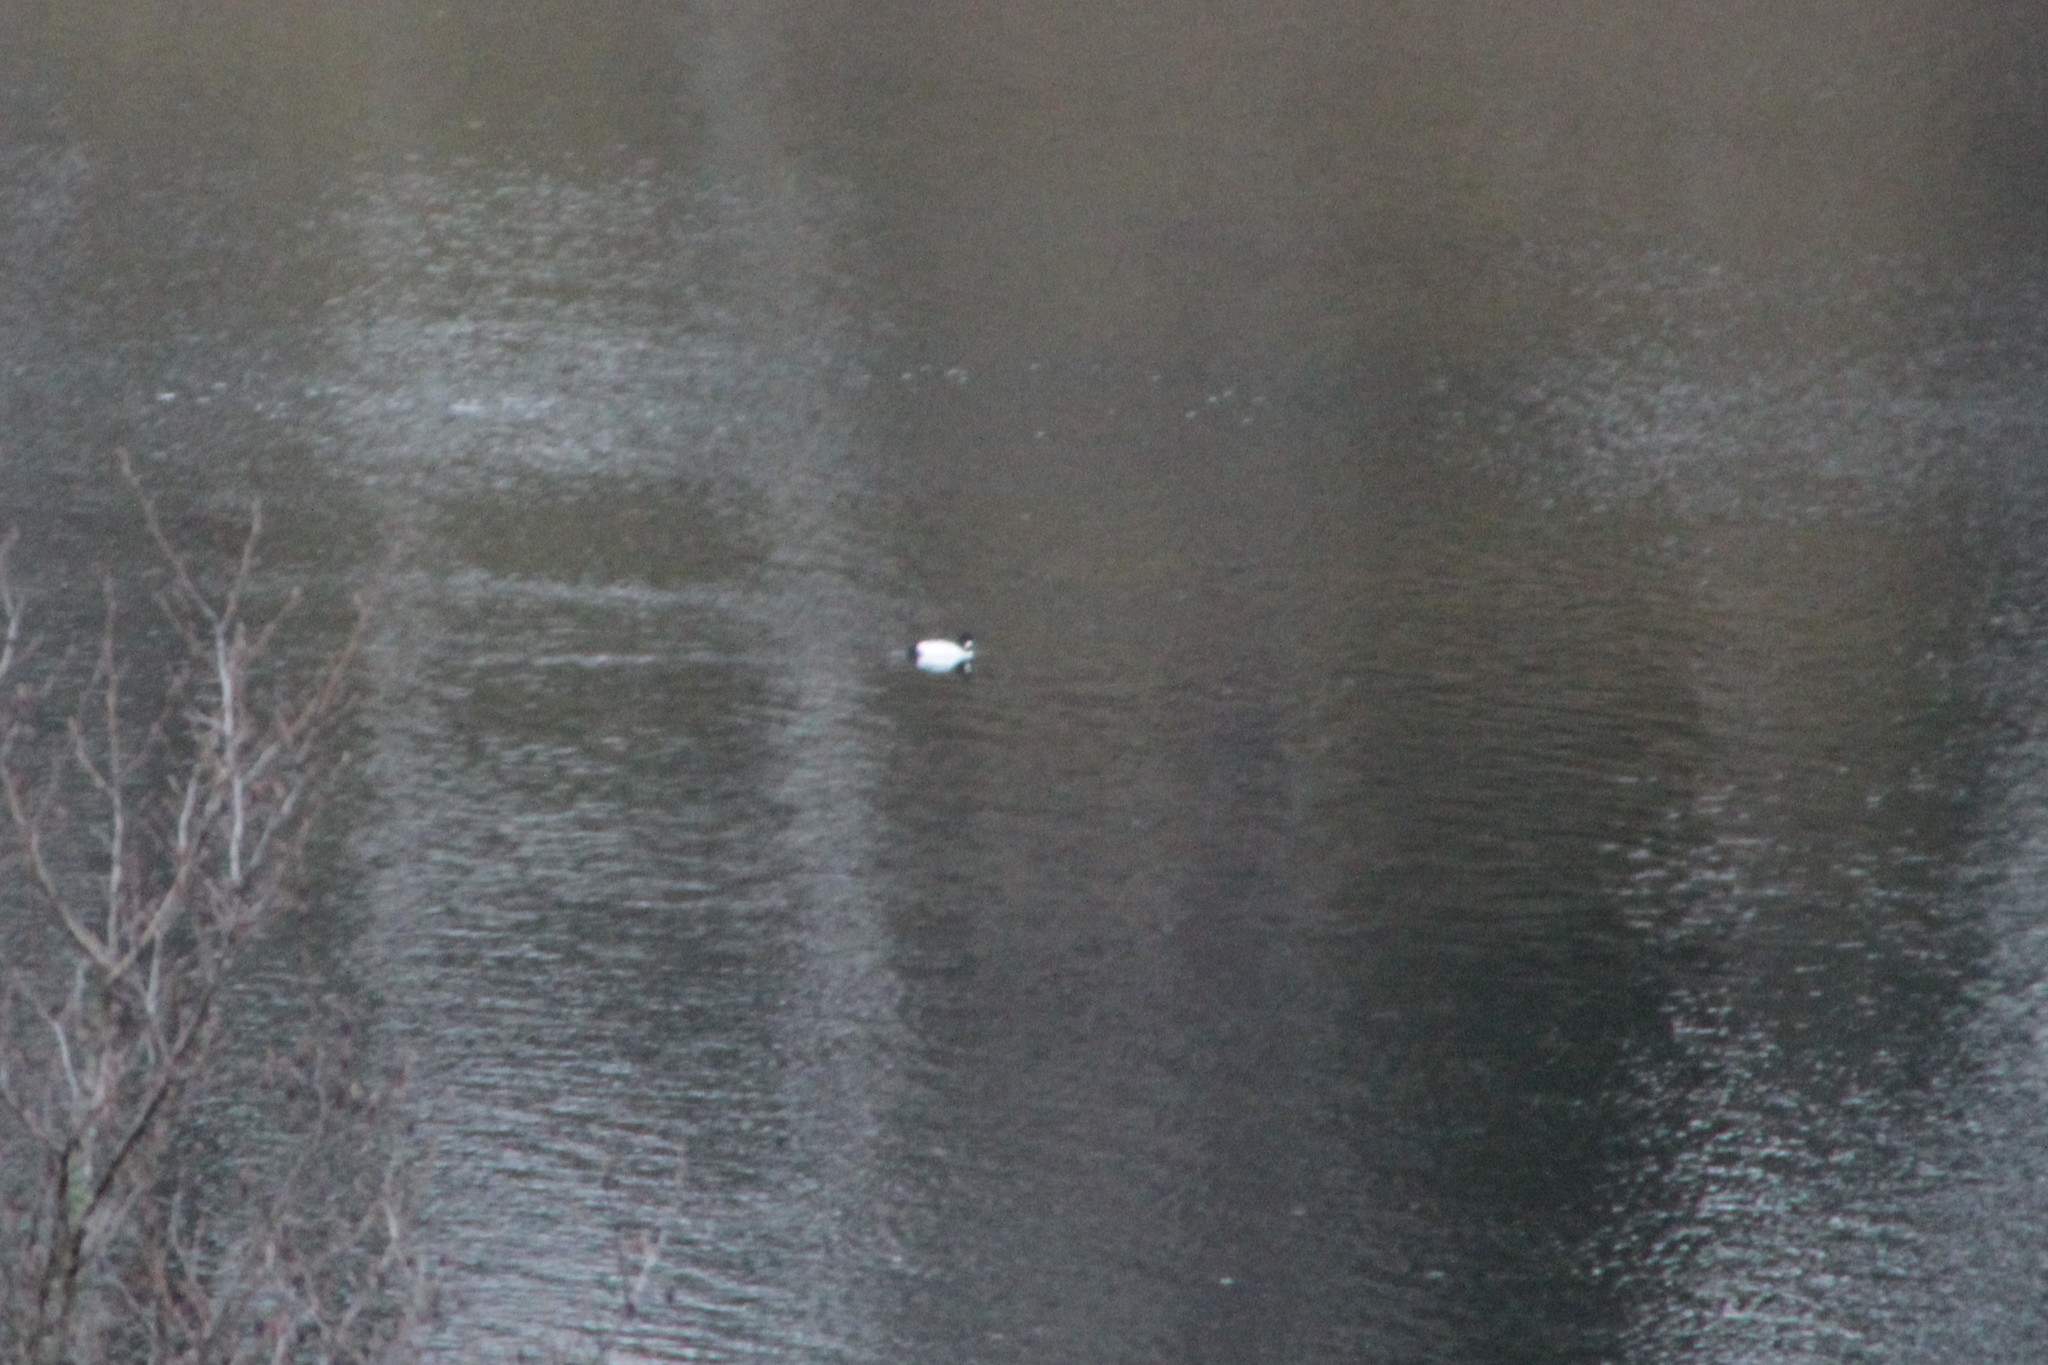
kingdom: Animalia
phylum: Chordata
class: Aves
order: Anseriformes
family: Anatidae
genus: Bucephala
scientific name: Bucephala clangula
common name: Common goldeneye
